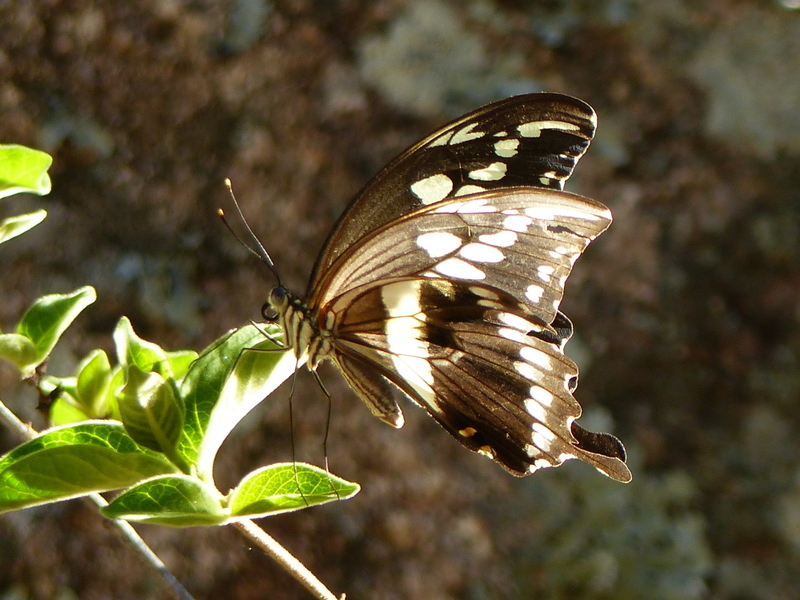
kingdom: Animalia
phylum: Arthropoda
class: Insecta
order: Lepidoptera
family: Papilionidae
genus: Papilio
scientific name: Papilio constantinus
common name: Constantine's swallowtail
